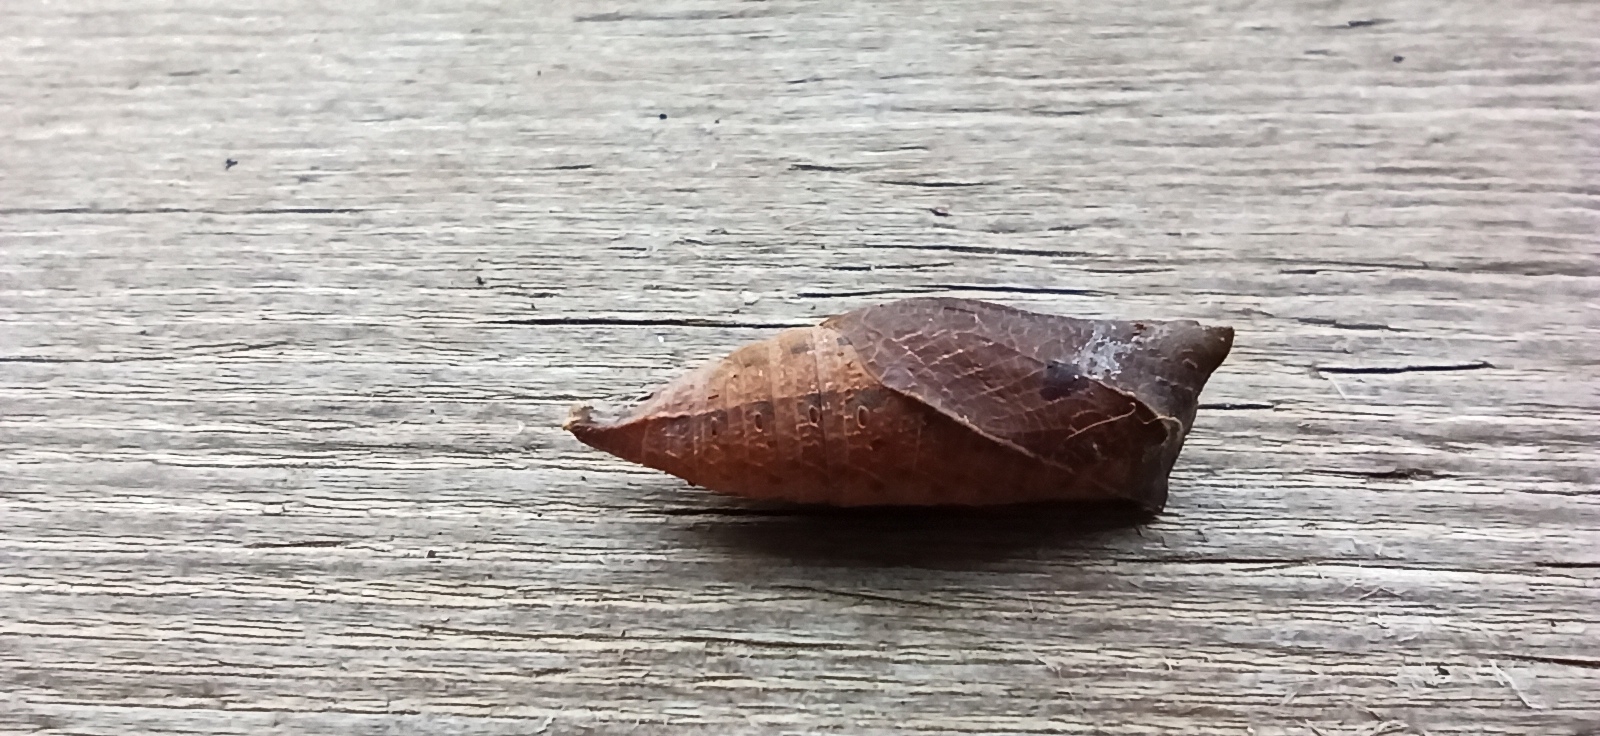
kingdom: Animalia
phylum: Arthropoda
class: Insecta
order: Lepidoptera
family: Papilionidae
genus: Iphiclides
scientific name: Iphiclides podalirius
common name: Scarce swallowtail
